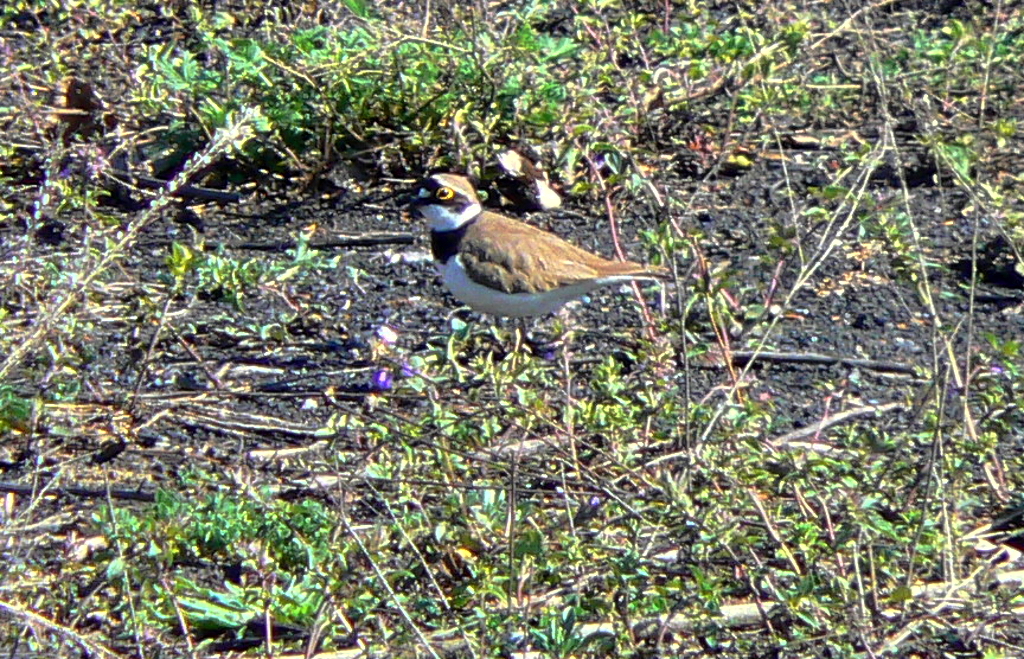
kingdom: Animalia
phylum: Chordata
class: Aves
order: Charadriiformes
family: Charadriidae
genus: Charadrius
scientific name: Charadrius dubius
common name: Little ringed plover
